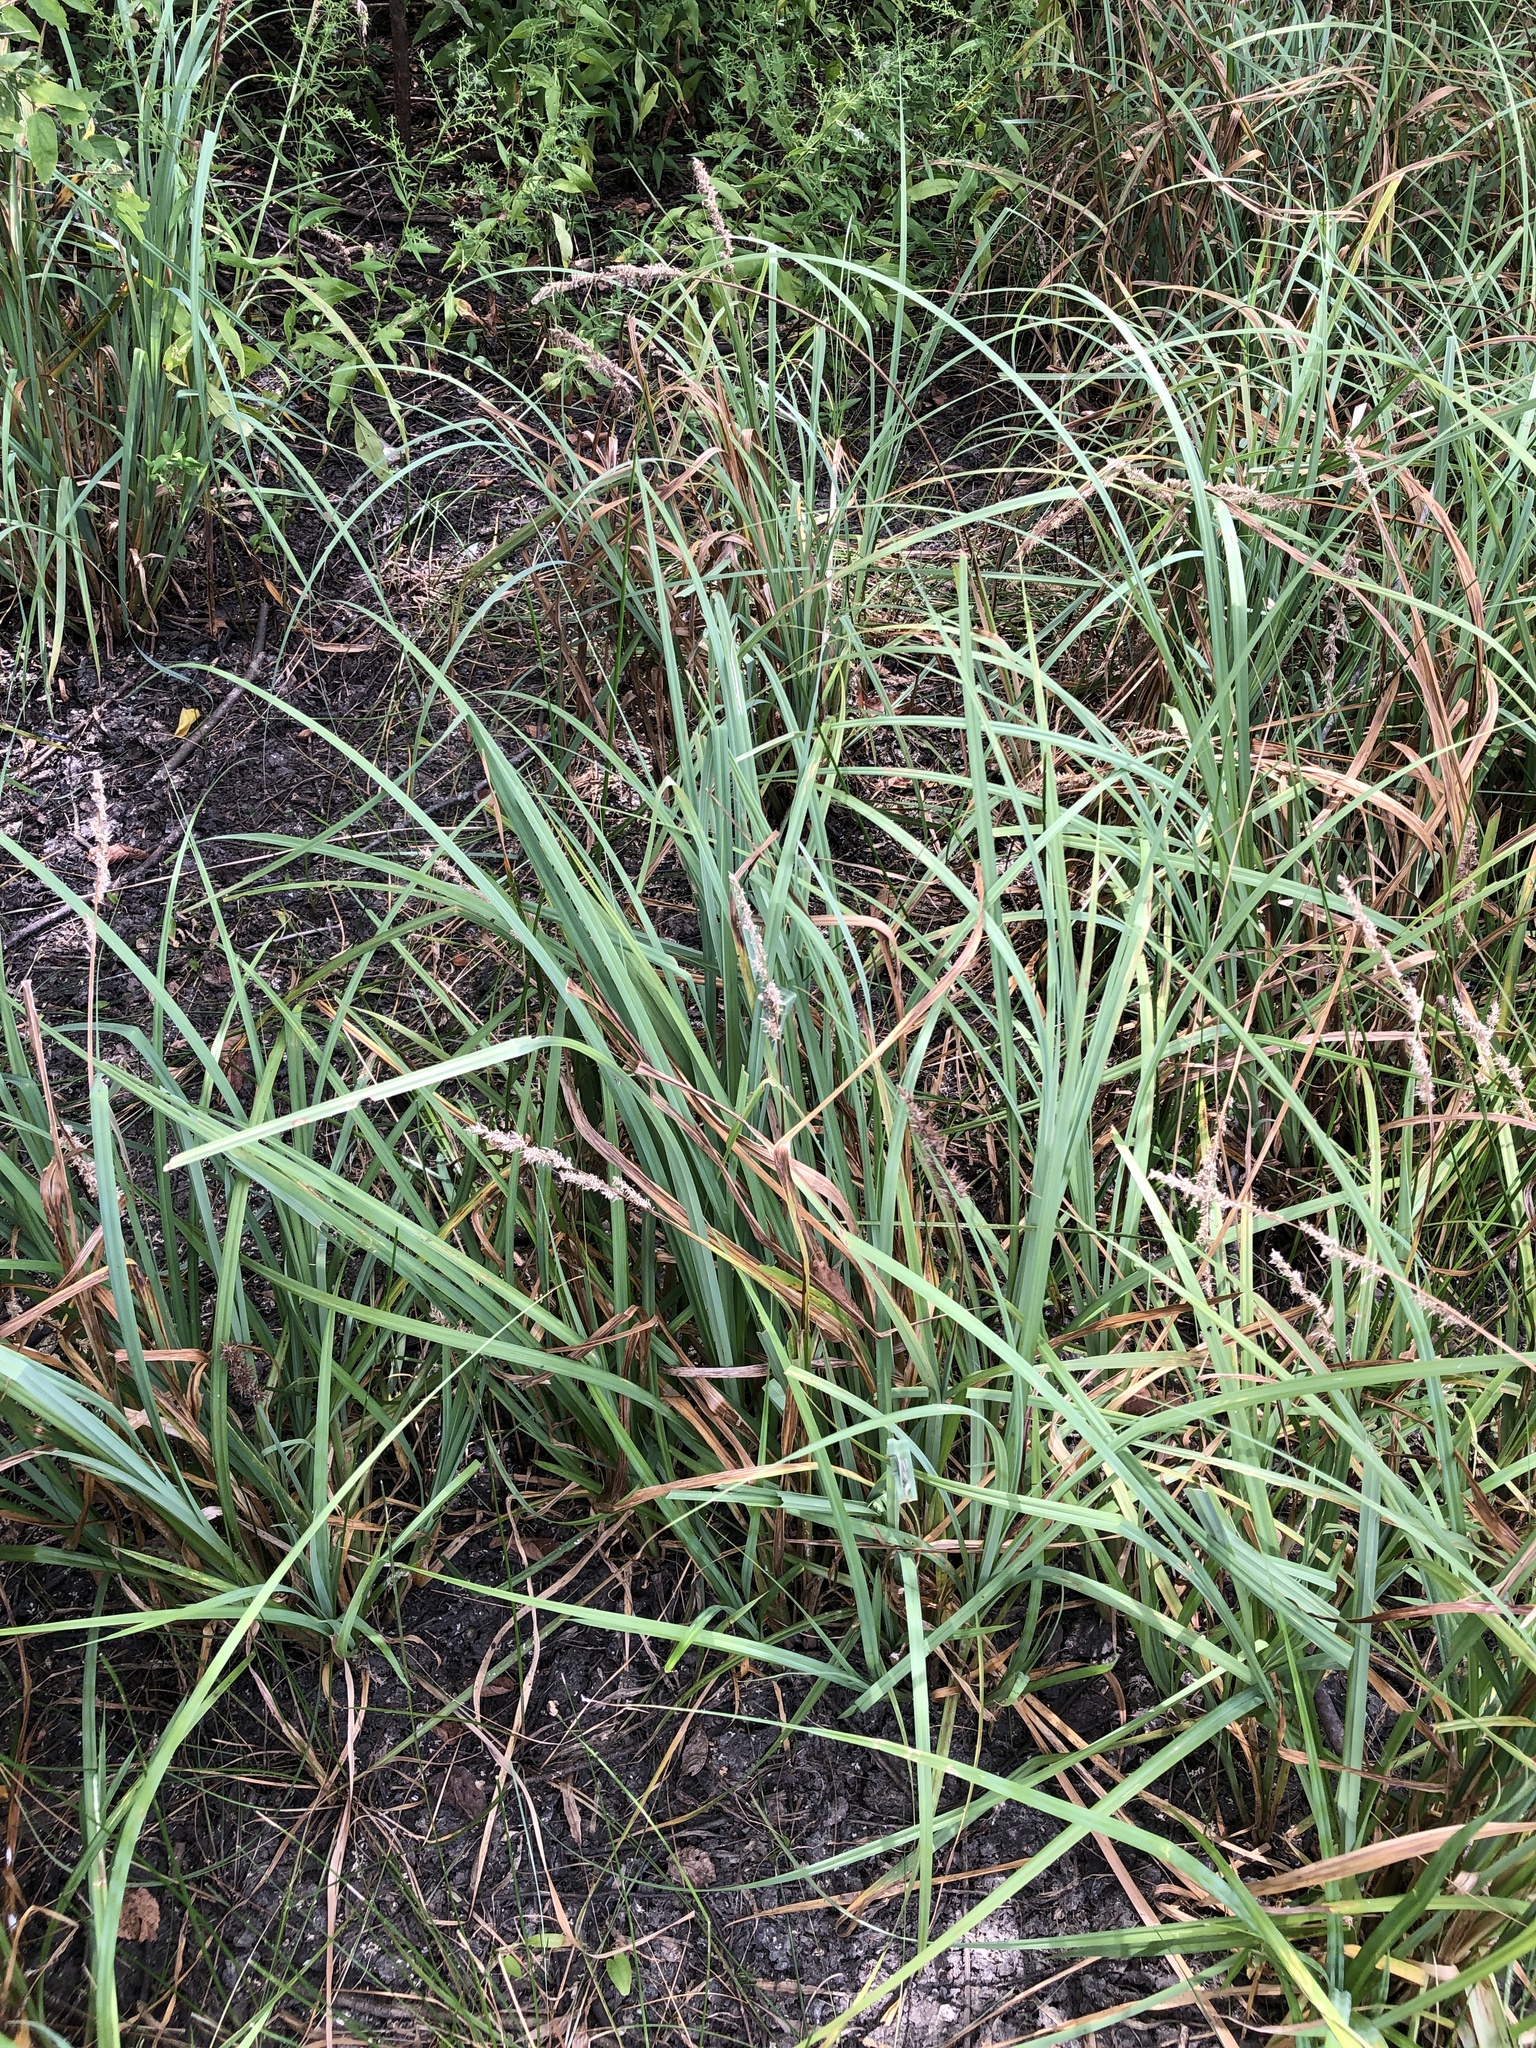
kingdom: Plantae
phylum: Tracheophyta
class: Liliopsida
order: Poales
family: Cyperaceae
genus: Carex
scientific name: Carex crus-corvi
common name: Crow-spur sedge
